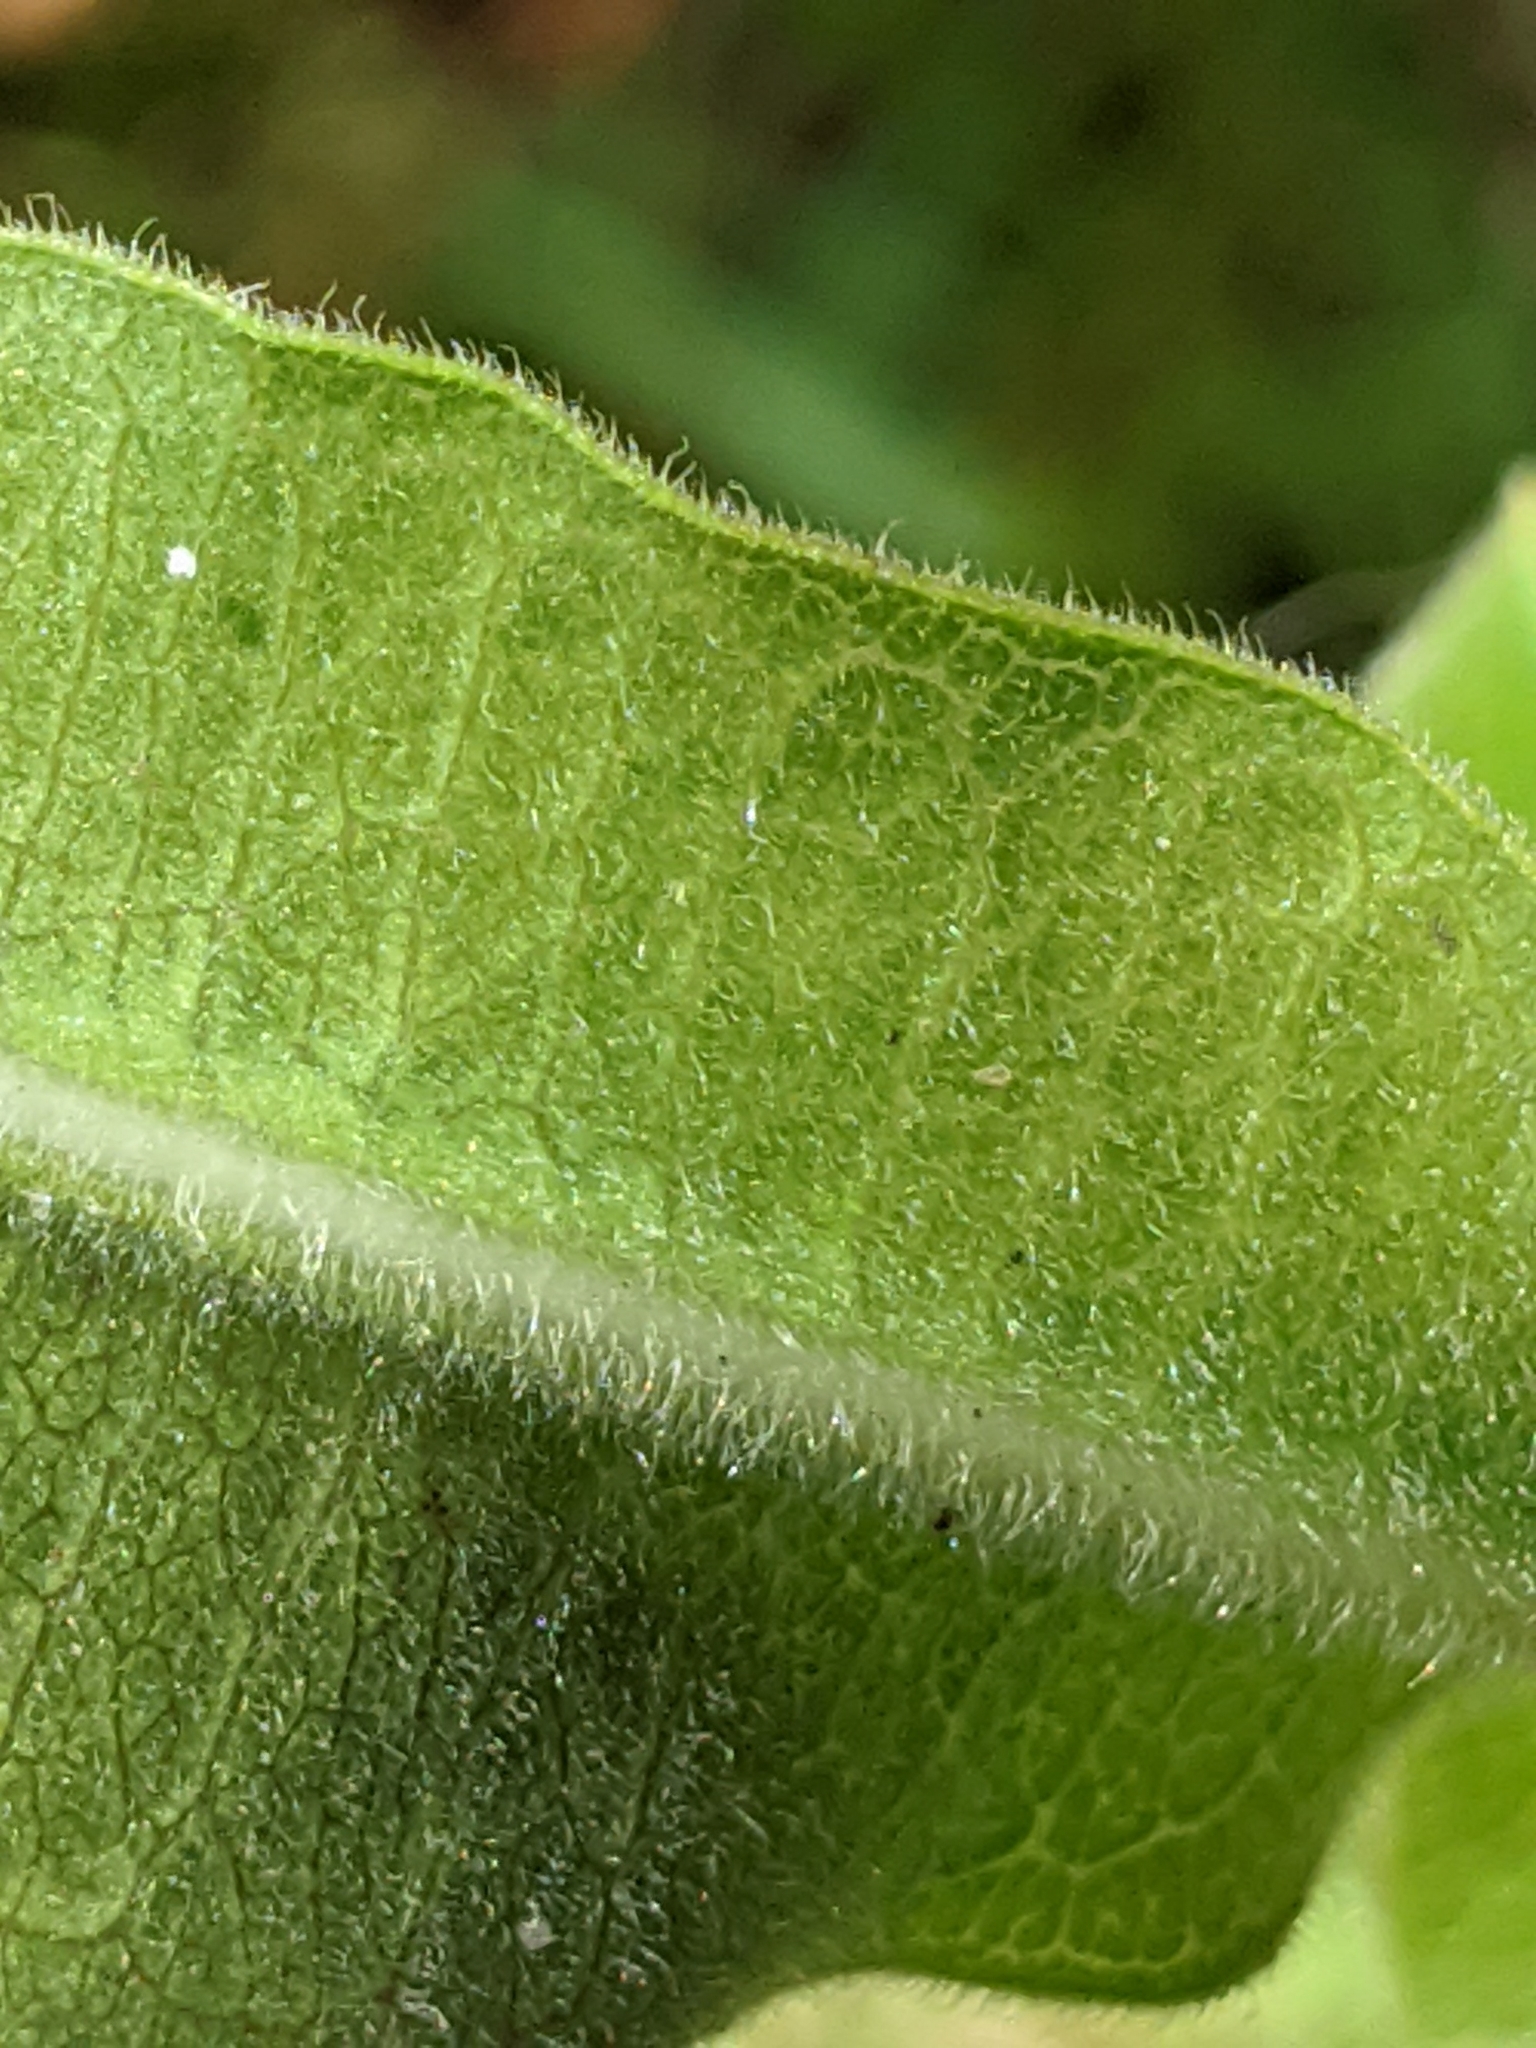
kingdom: Plantae
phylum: Tracheophyta
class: Magnoliopsida
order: Gentianales
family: Apocynaceae
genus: Asclepias
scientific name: Asclepias obovata
